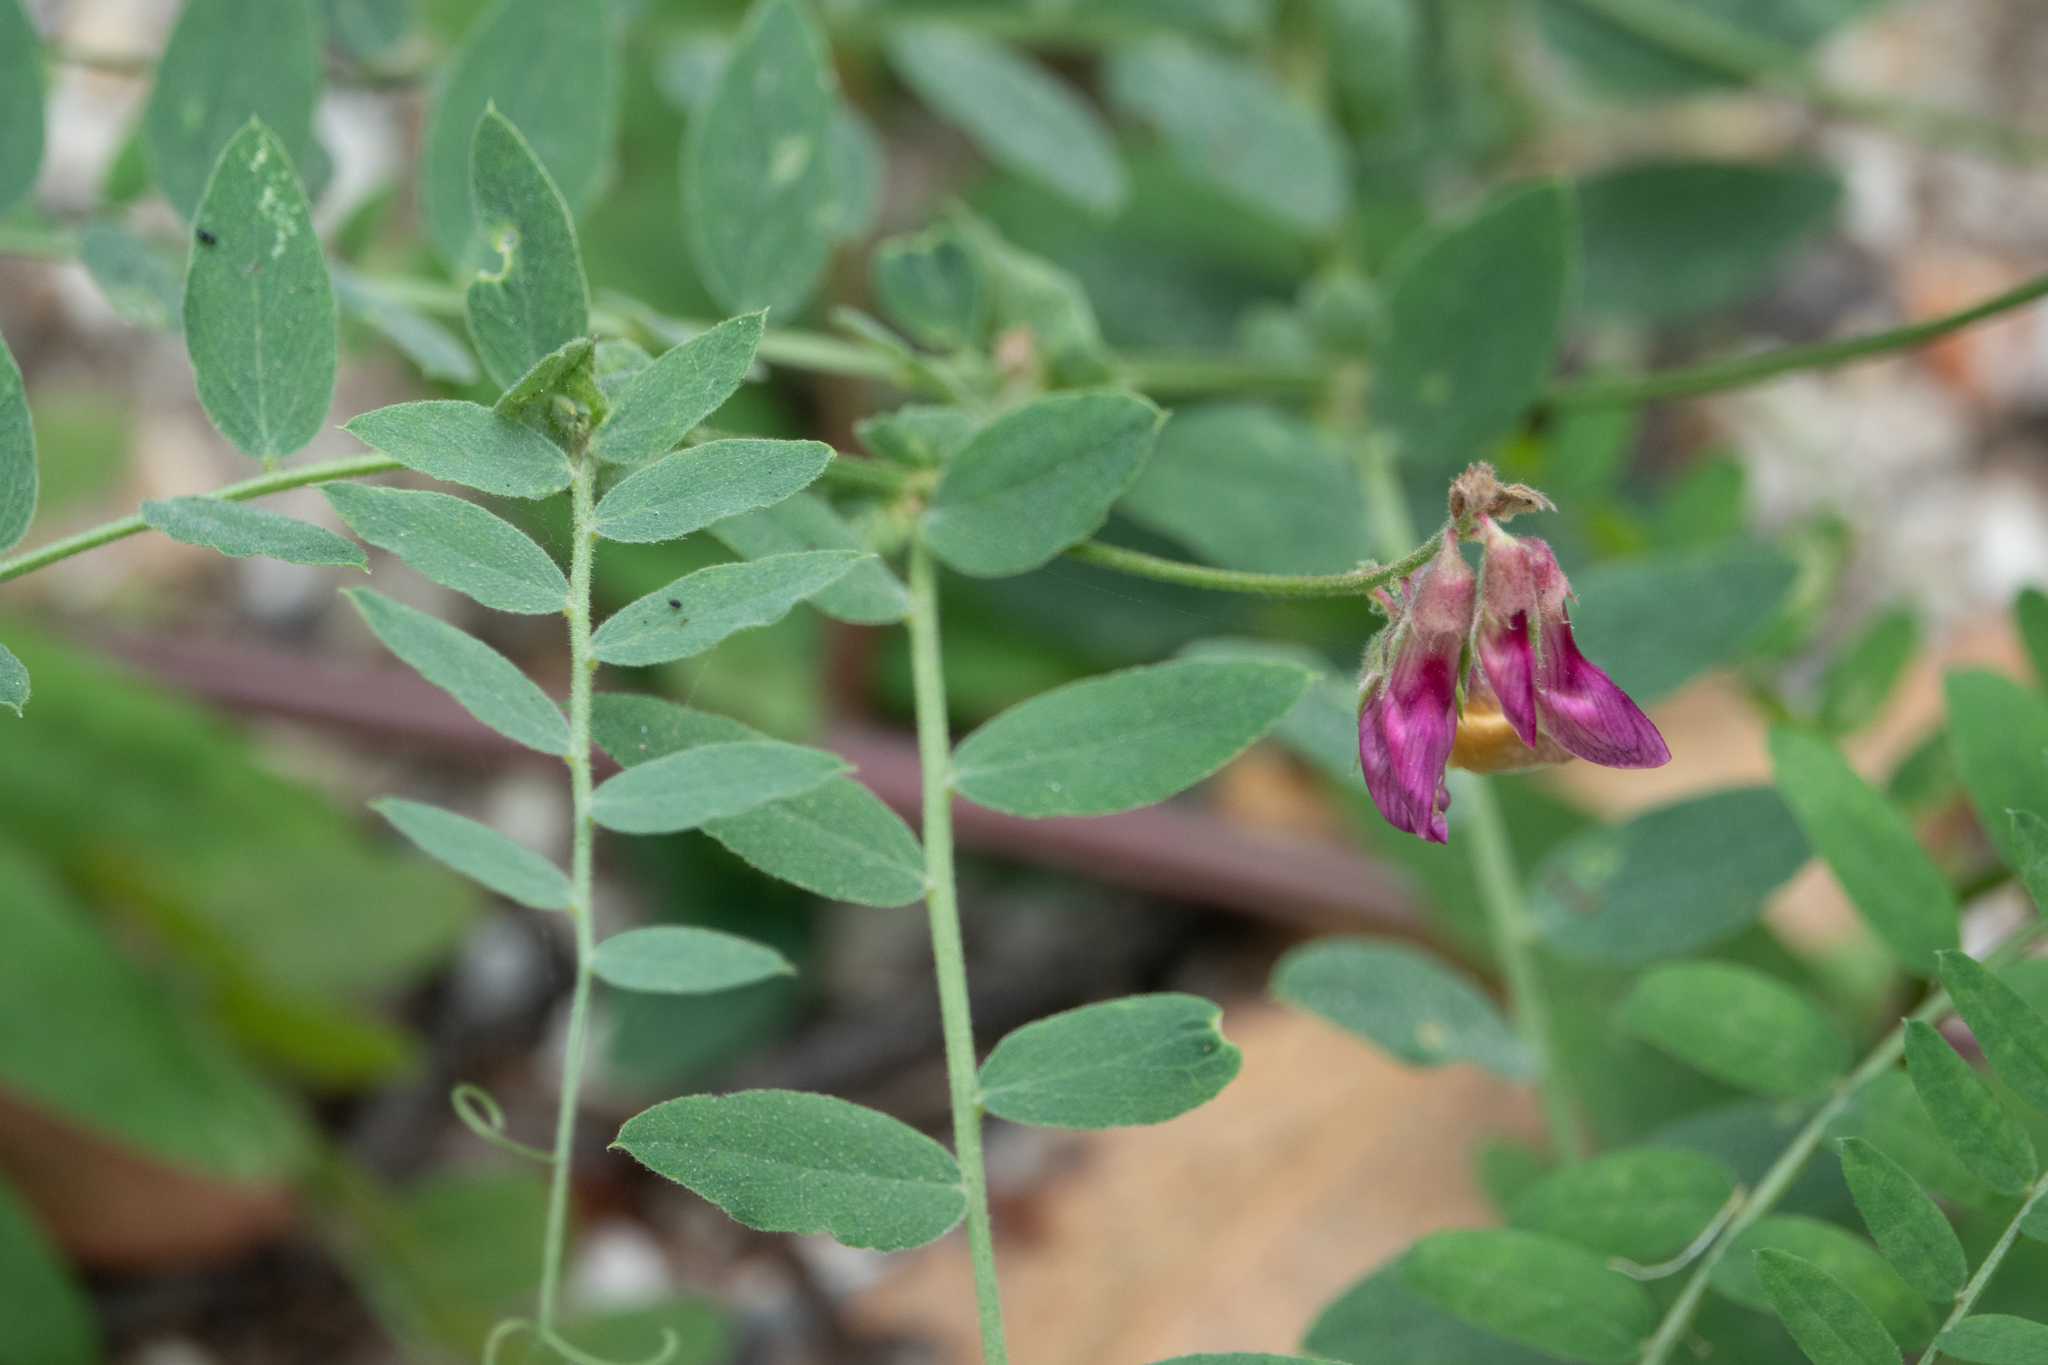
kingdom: Plantae
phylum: Tracheophyta
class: Magnoliopsida
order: Fabales
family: Fabaceae
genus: Lathyrus
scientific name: Lathyrus vestitus
